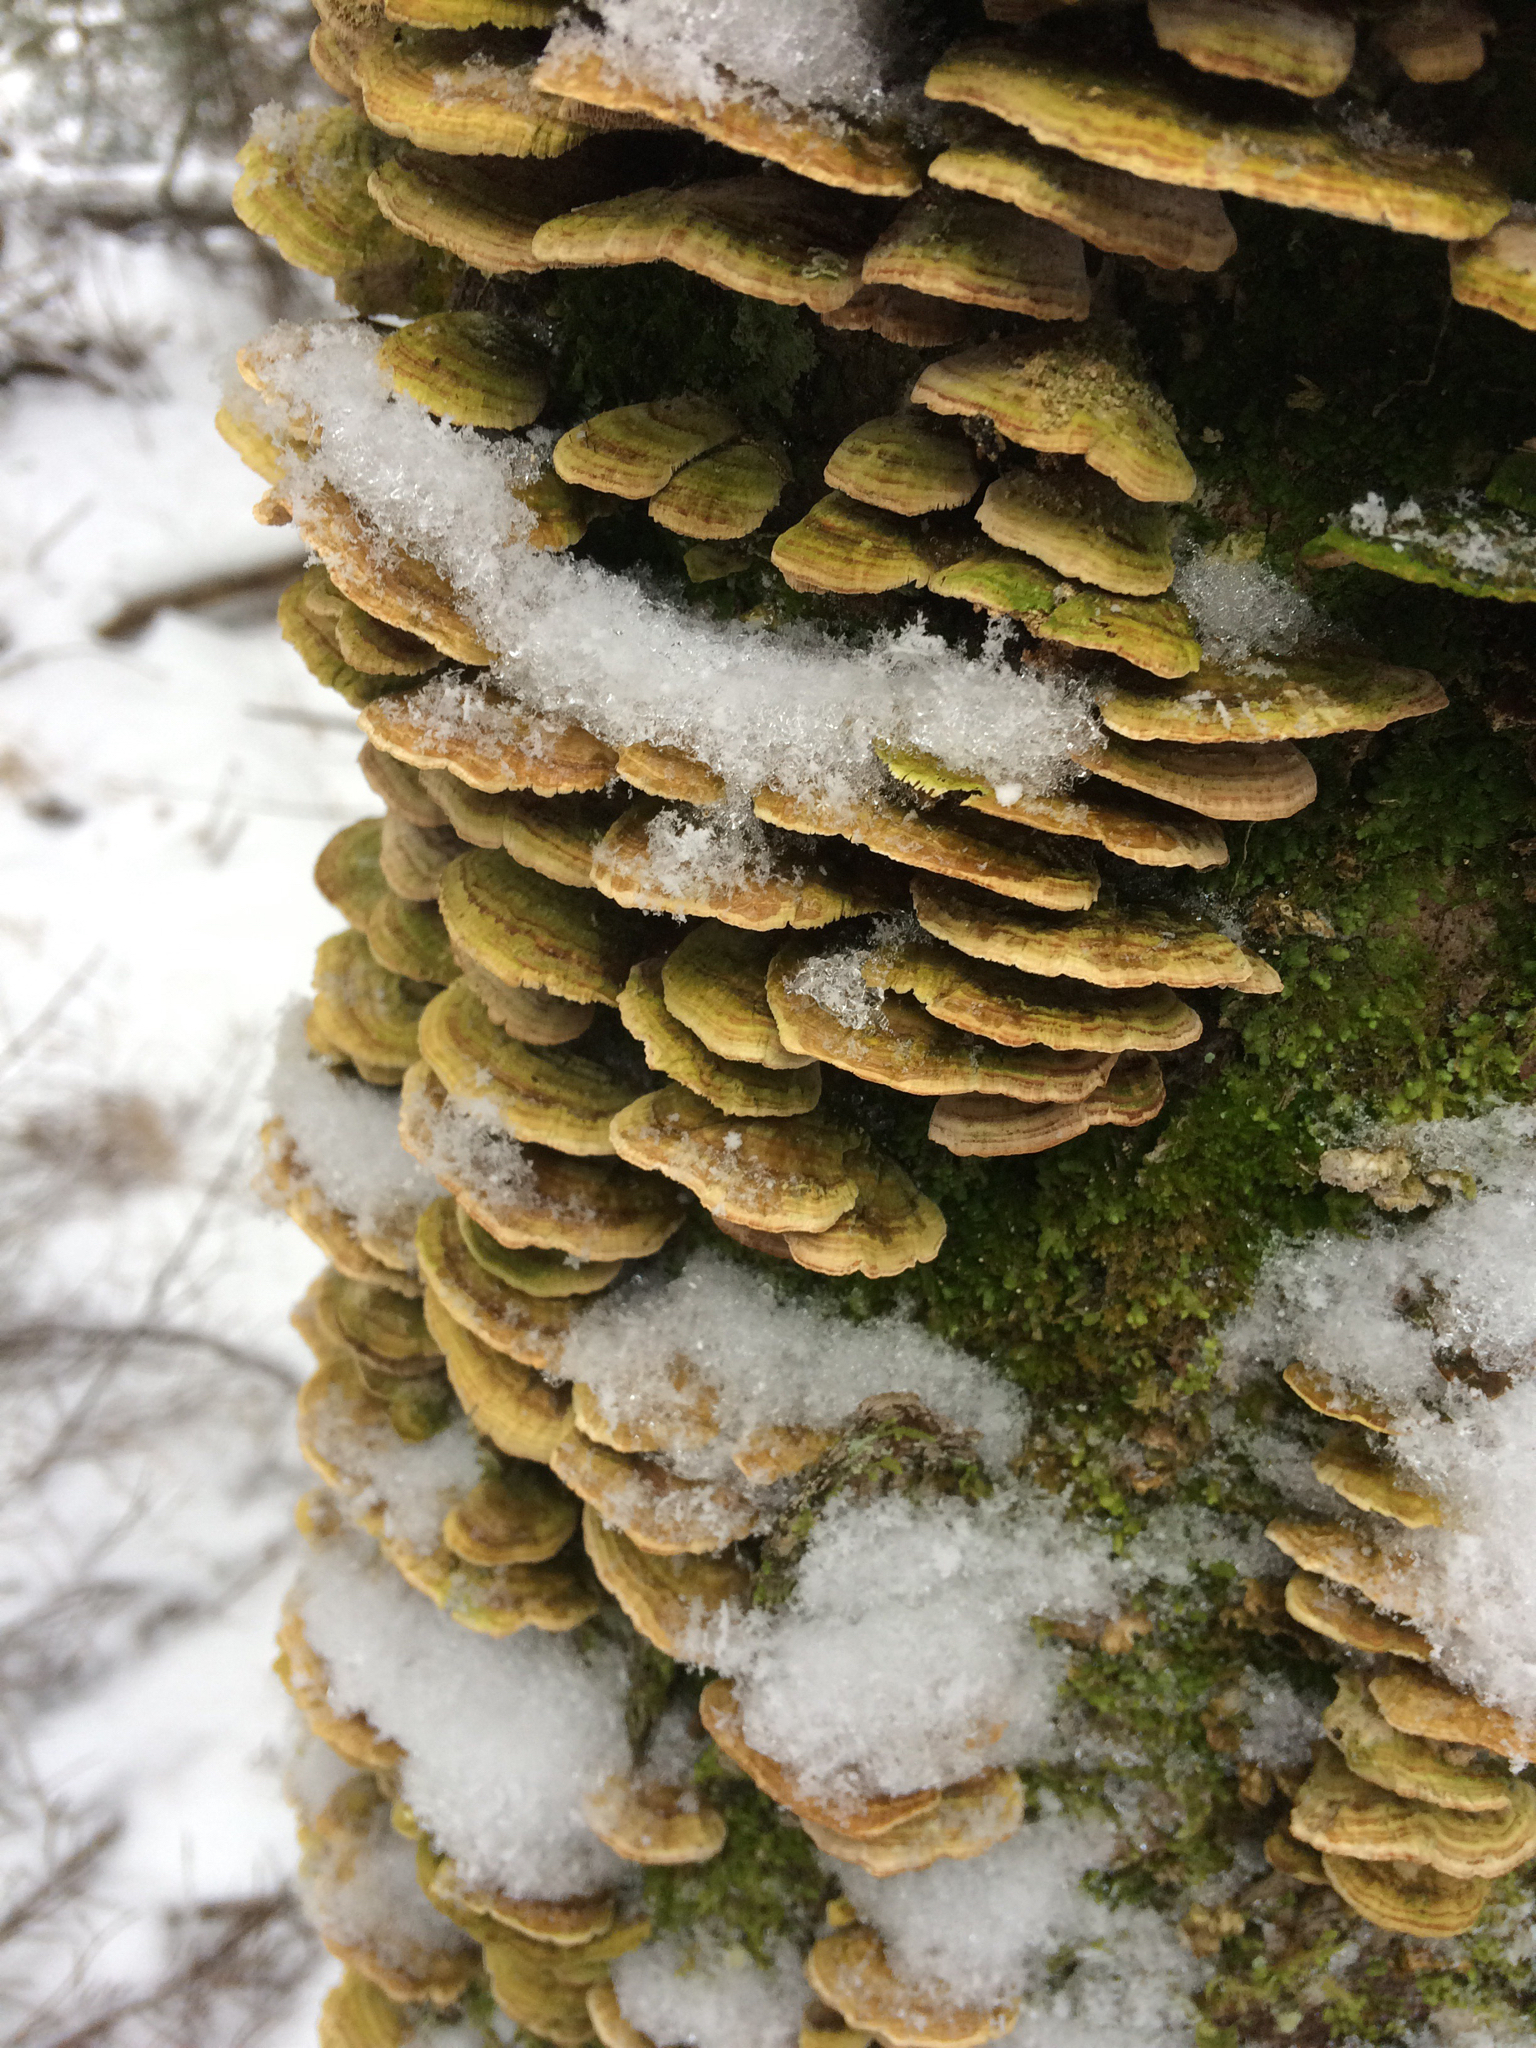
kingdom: Fungi
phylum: Basidiomycota
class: Agaricomycetes
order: Hymenochaetales
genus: Trichaptum
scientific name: Trichaptum abietinum
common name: Purplepore bracket
